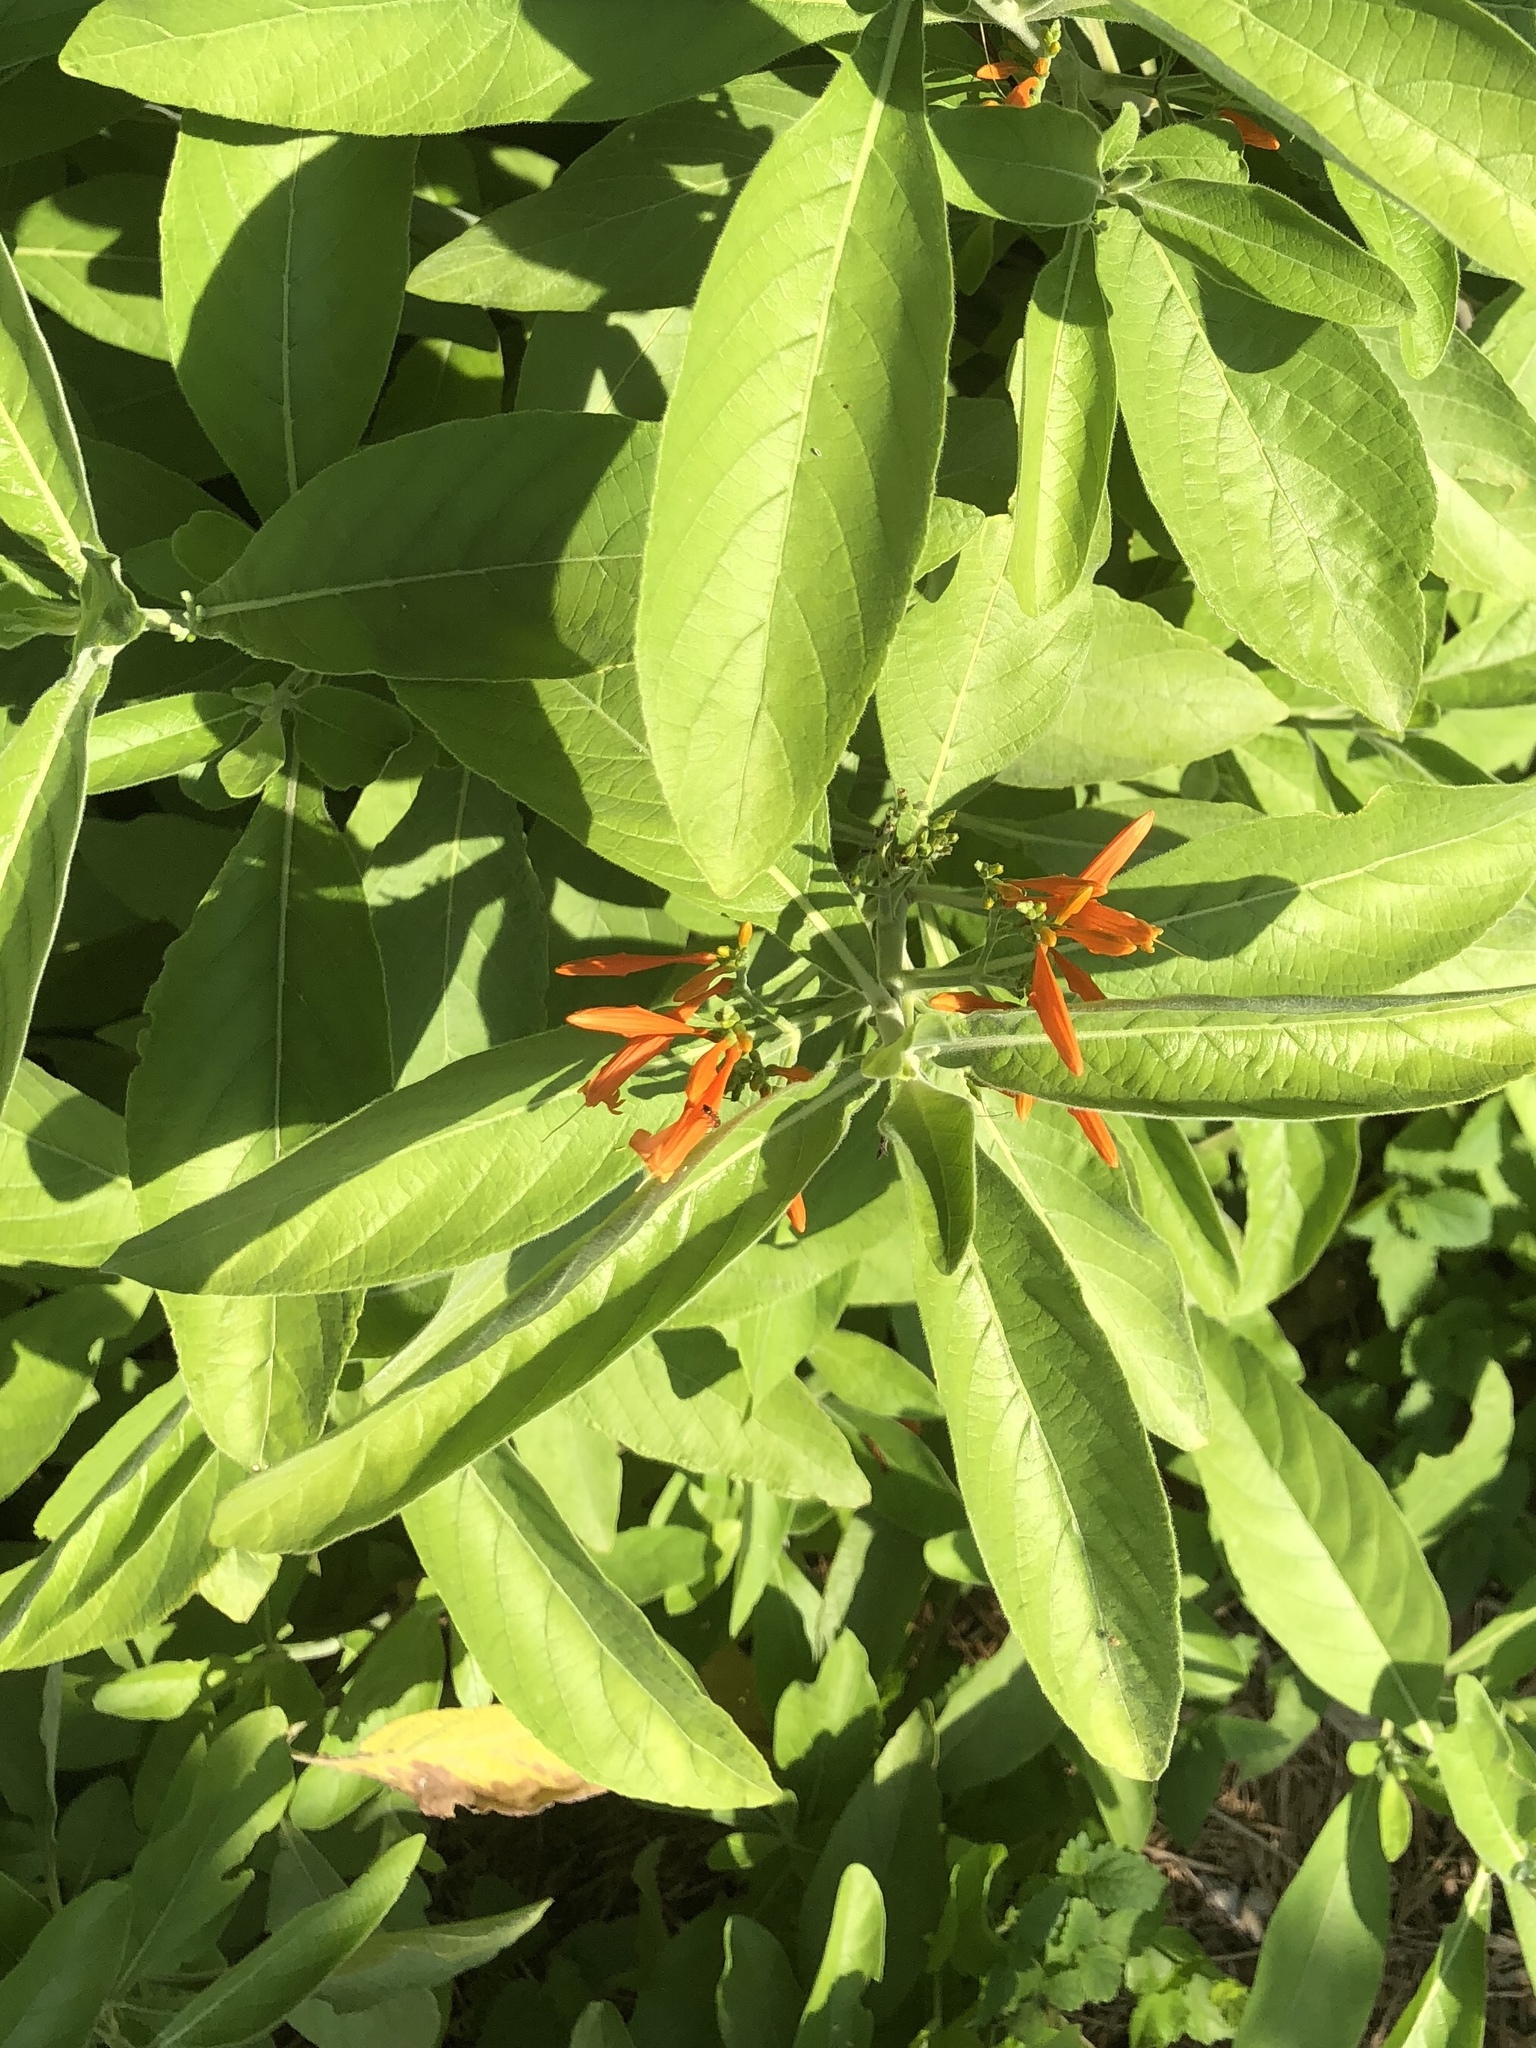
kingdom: Plantae
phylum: Tracheophyta
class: Magnoliopsida
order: Lamiales
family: Acanthaceae
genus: Justicia
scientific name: Justicia spicigera
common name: Mohintli
